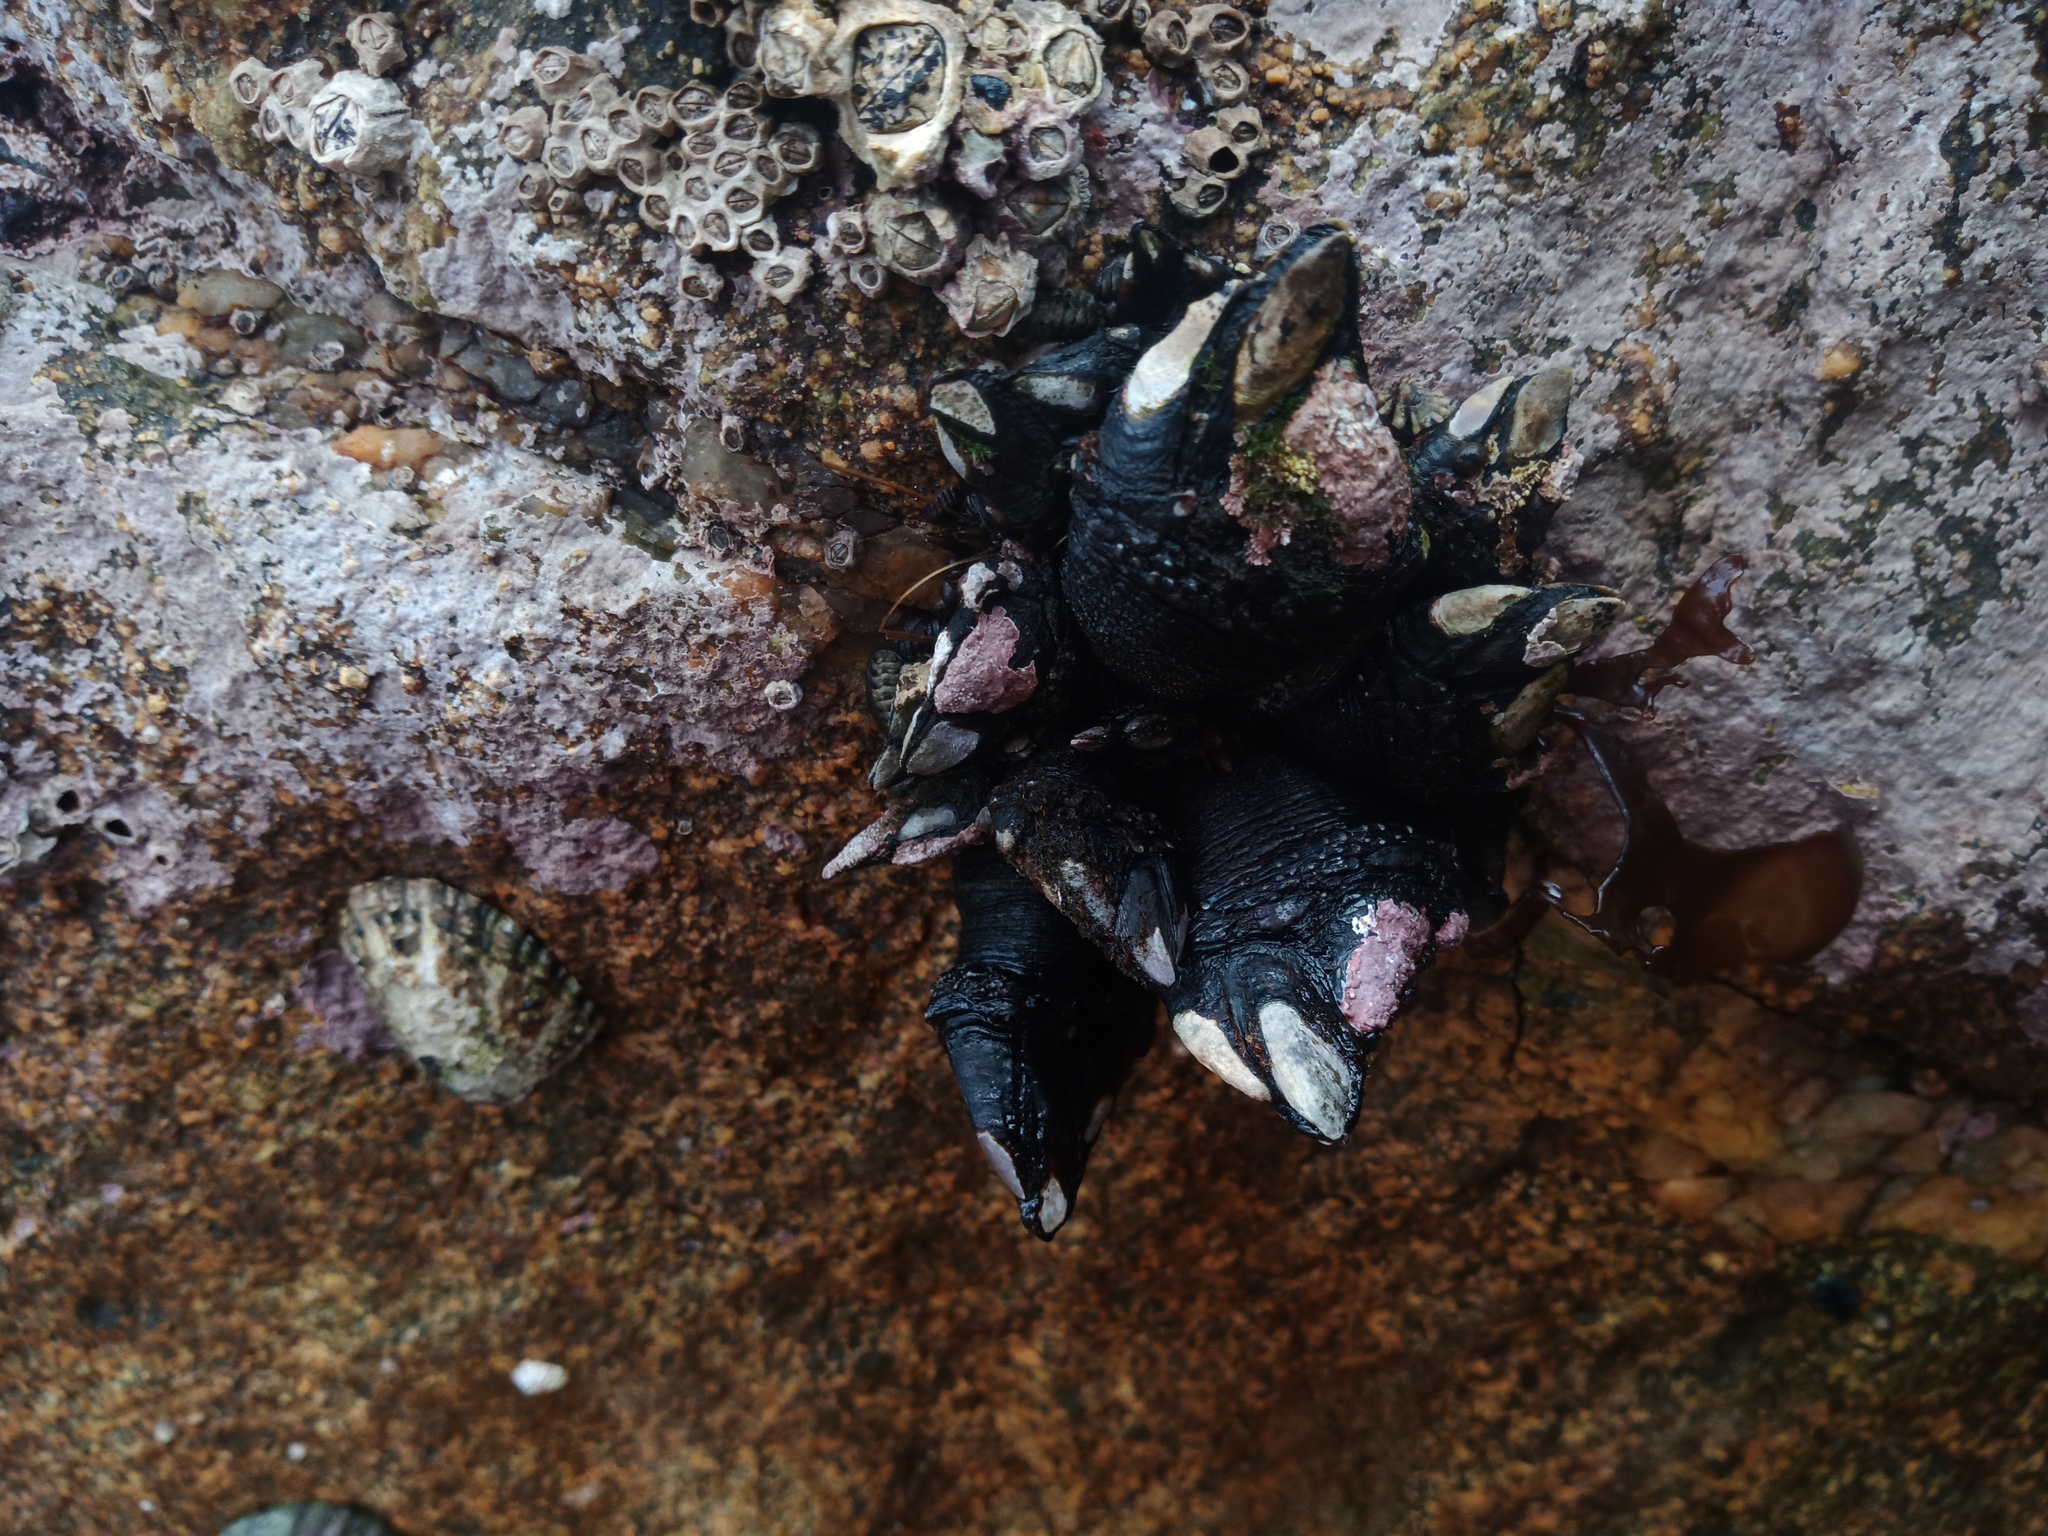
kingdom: Animalia
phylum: Arthropoda
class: Maxillopoda
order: Pedunculata
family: Calanticidae
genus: Calantica
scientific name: Calantica spinosa
